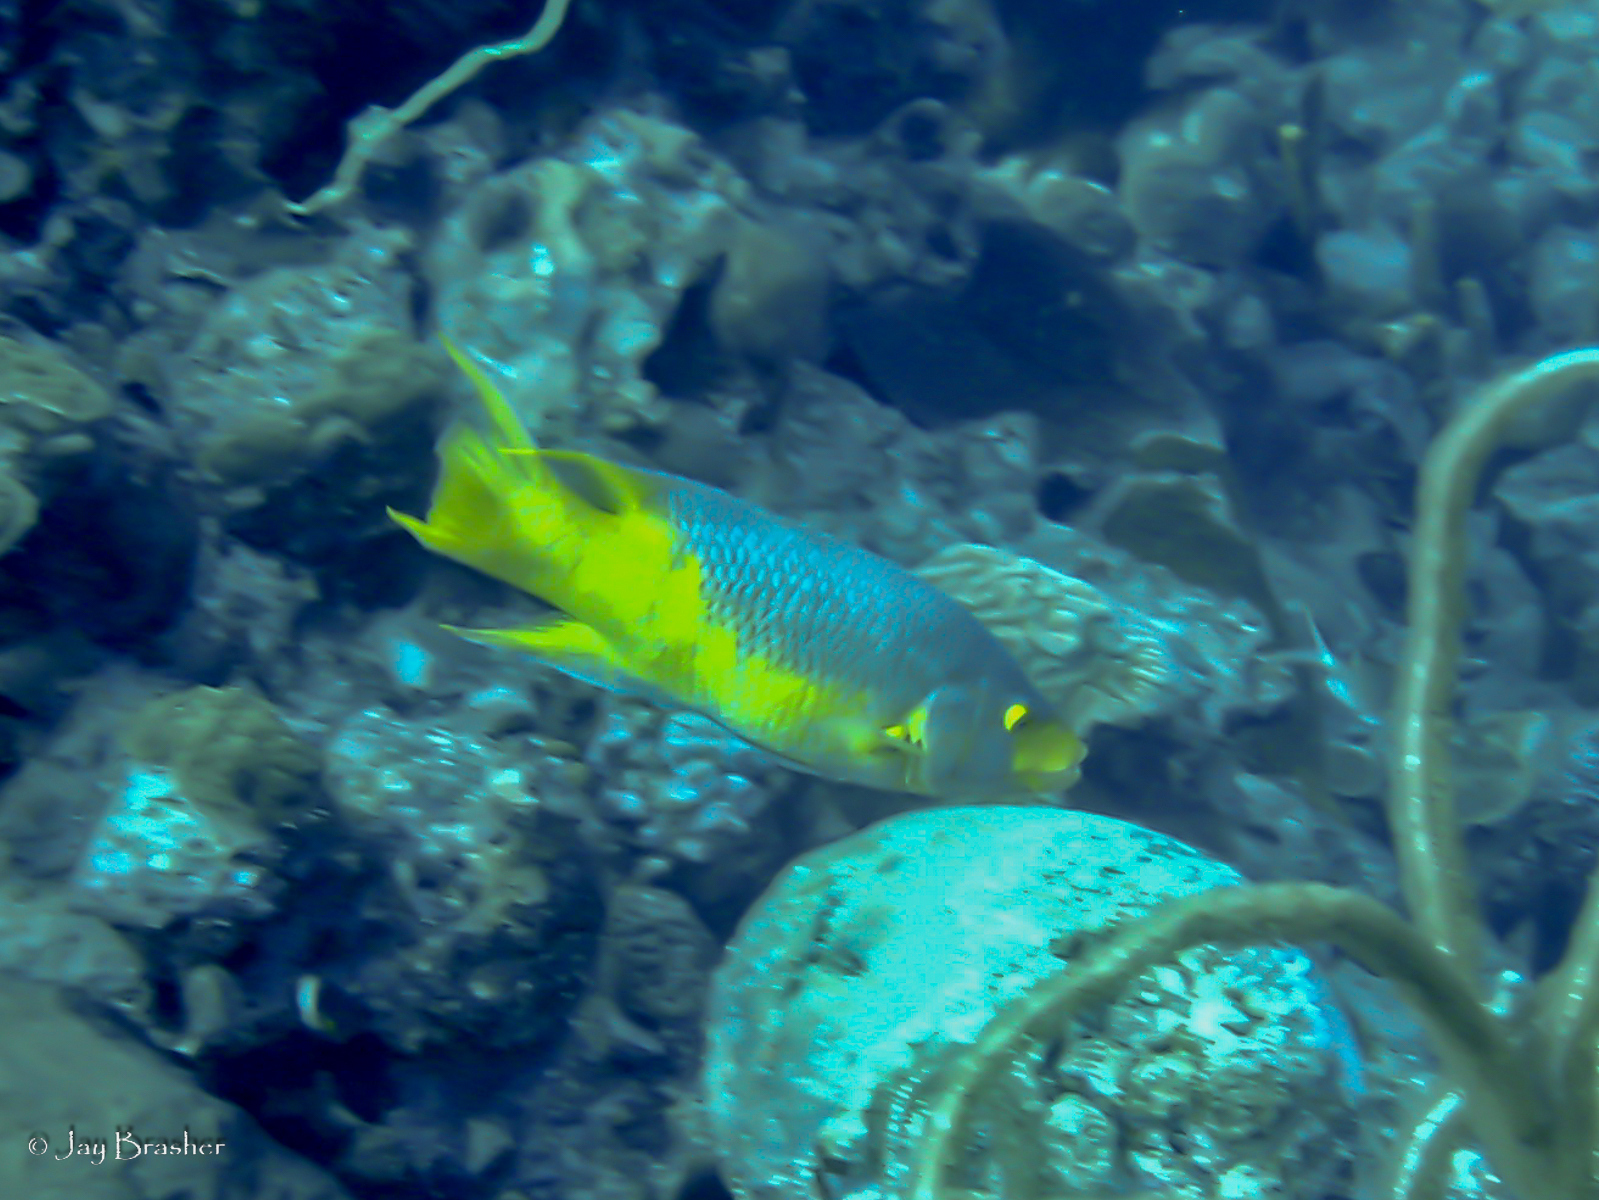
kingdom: Animalia
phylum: Chordata
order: Perciformes
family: Labridae
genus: Bodianus
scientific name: Bodianus rufus
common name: Spanish hogfish
